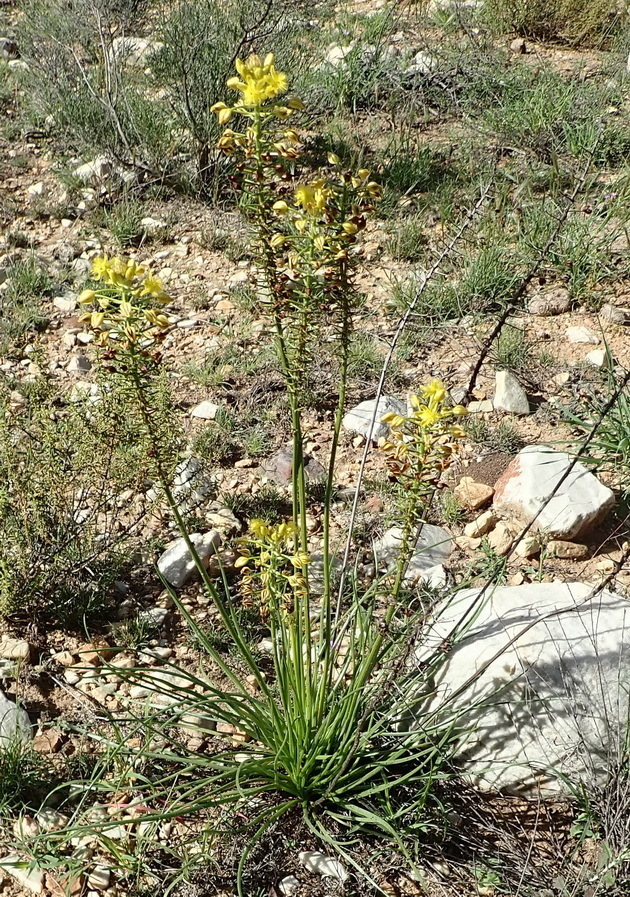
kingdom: Plantae
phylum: Tracheophyta
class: Liliopsida
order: Asparagales
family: Asphodelaceae
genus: Bulbine
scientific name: Bulbine abyssinica
